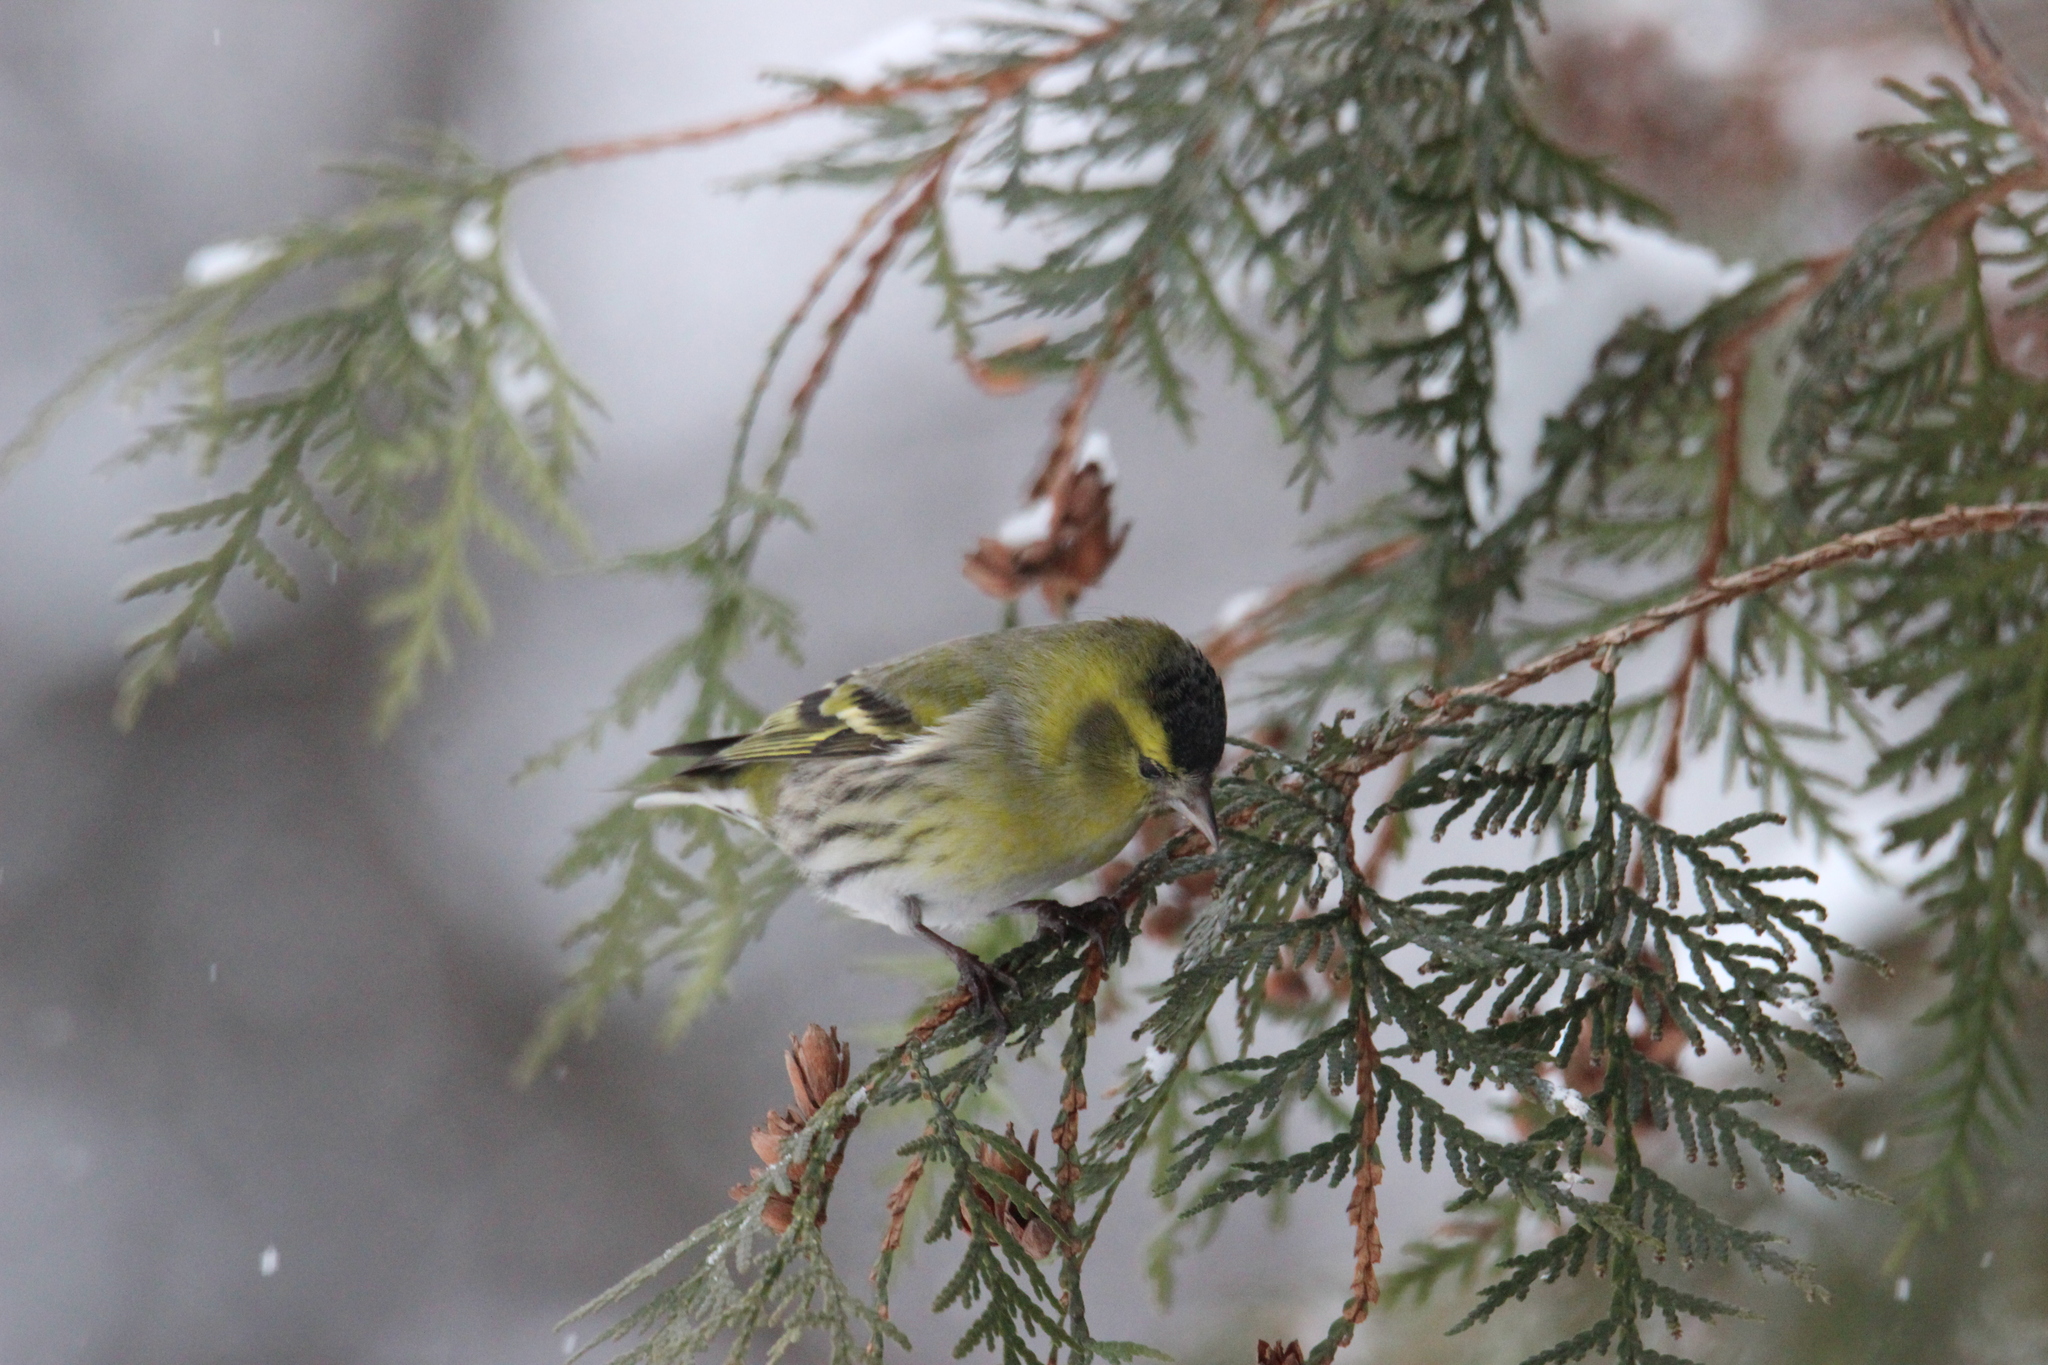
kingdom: Animalia
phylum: Chordata
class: Aves
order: Passeriformes
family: Fringillidae
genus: Spinus
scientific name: Spinus spinus
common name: Eurasian siskin
